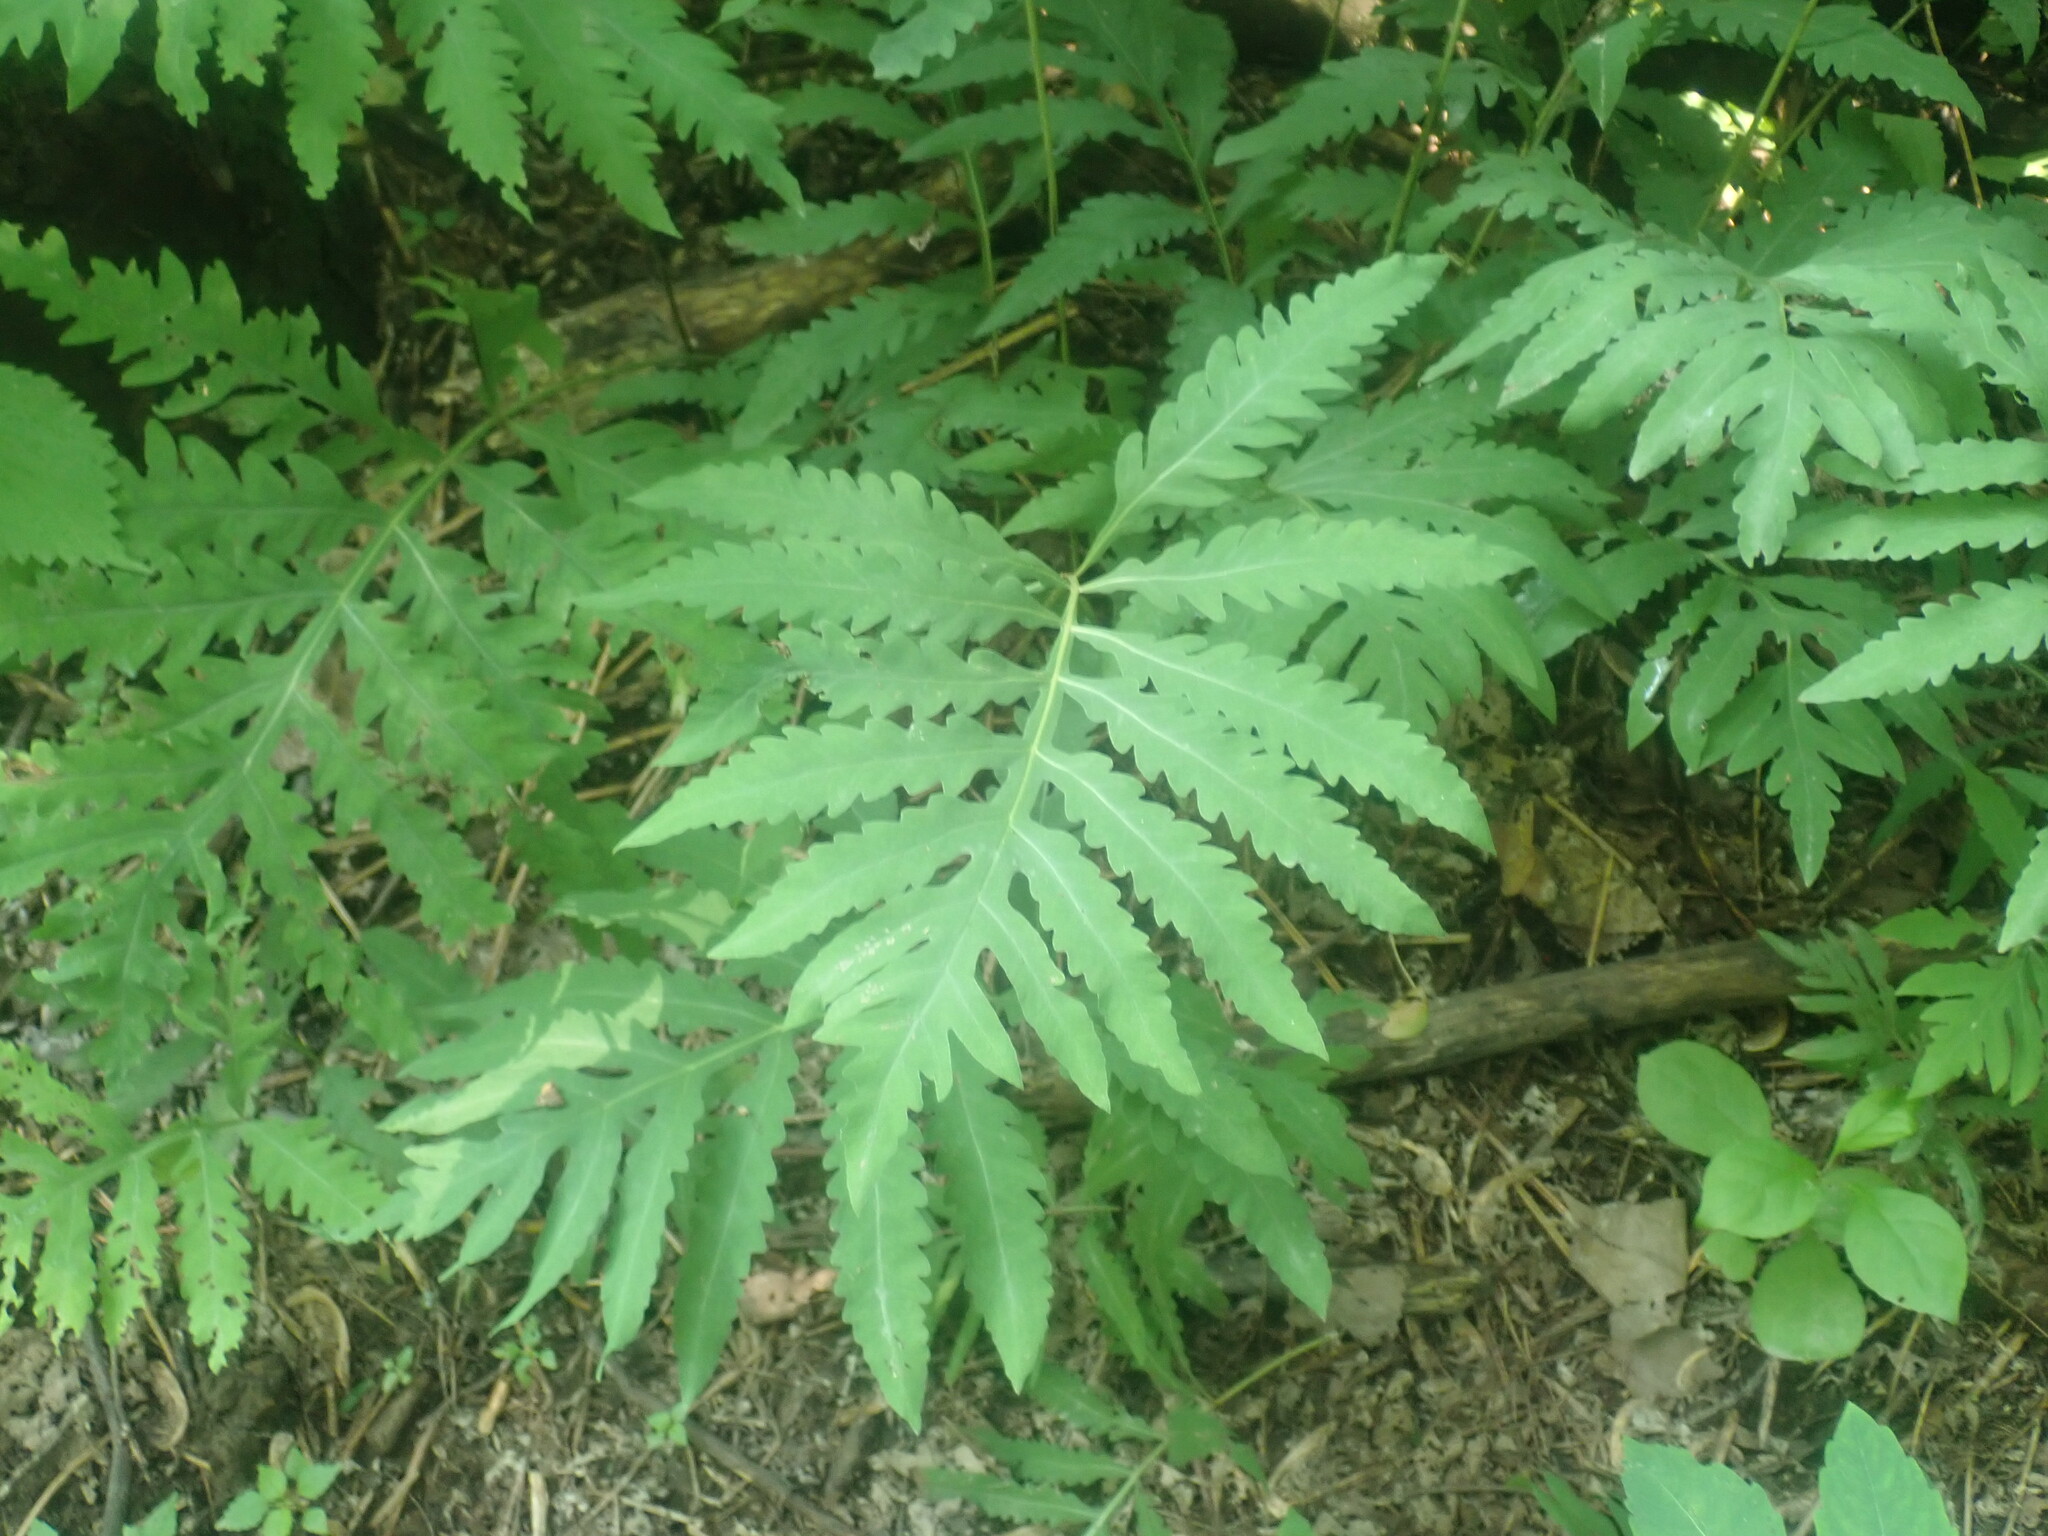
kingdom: Plantae
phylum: Tracheophyta
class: Polypodiopsida
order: Polypodiales
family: Onocleaceae
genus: Onoclea
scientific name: Onoclea sensibilis
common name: Sensitive fern
